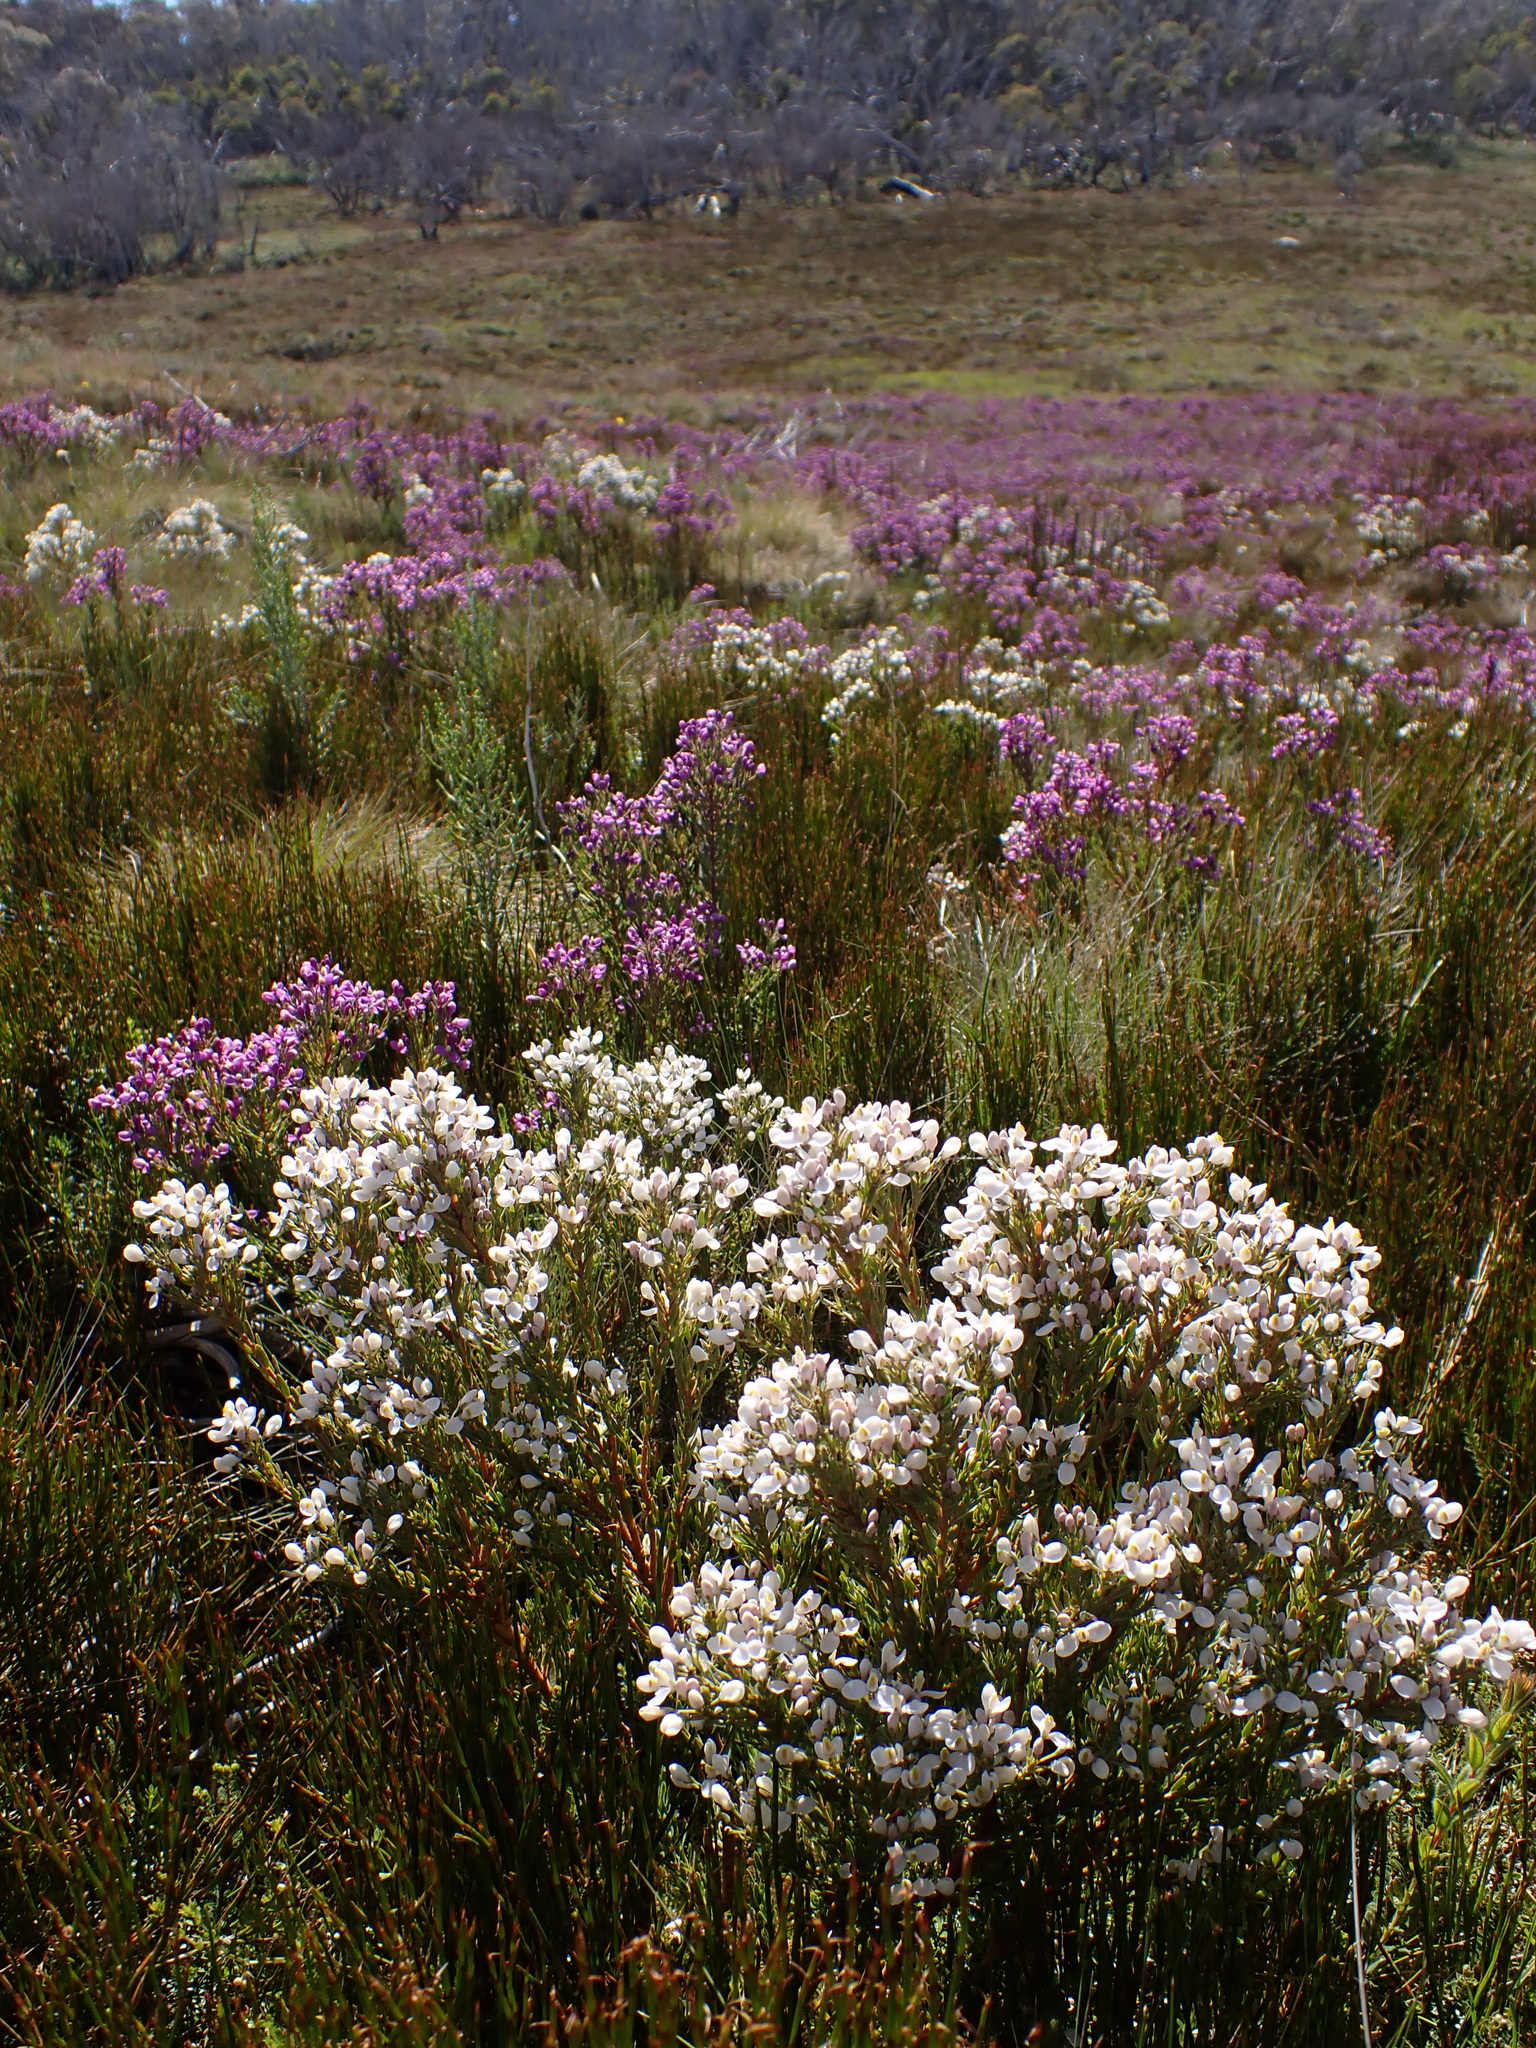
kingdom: Plantae
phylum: Tracheophyta
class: Magnoliopsida
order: Fabales
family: Polygalaceae
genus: Comesperma
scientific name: Comesperma retusum
